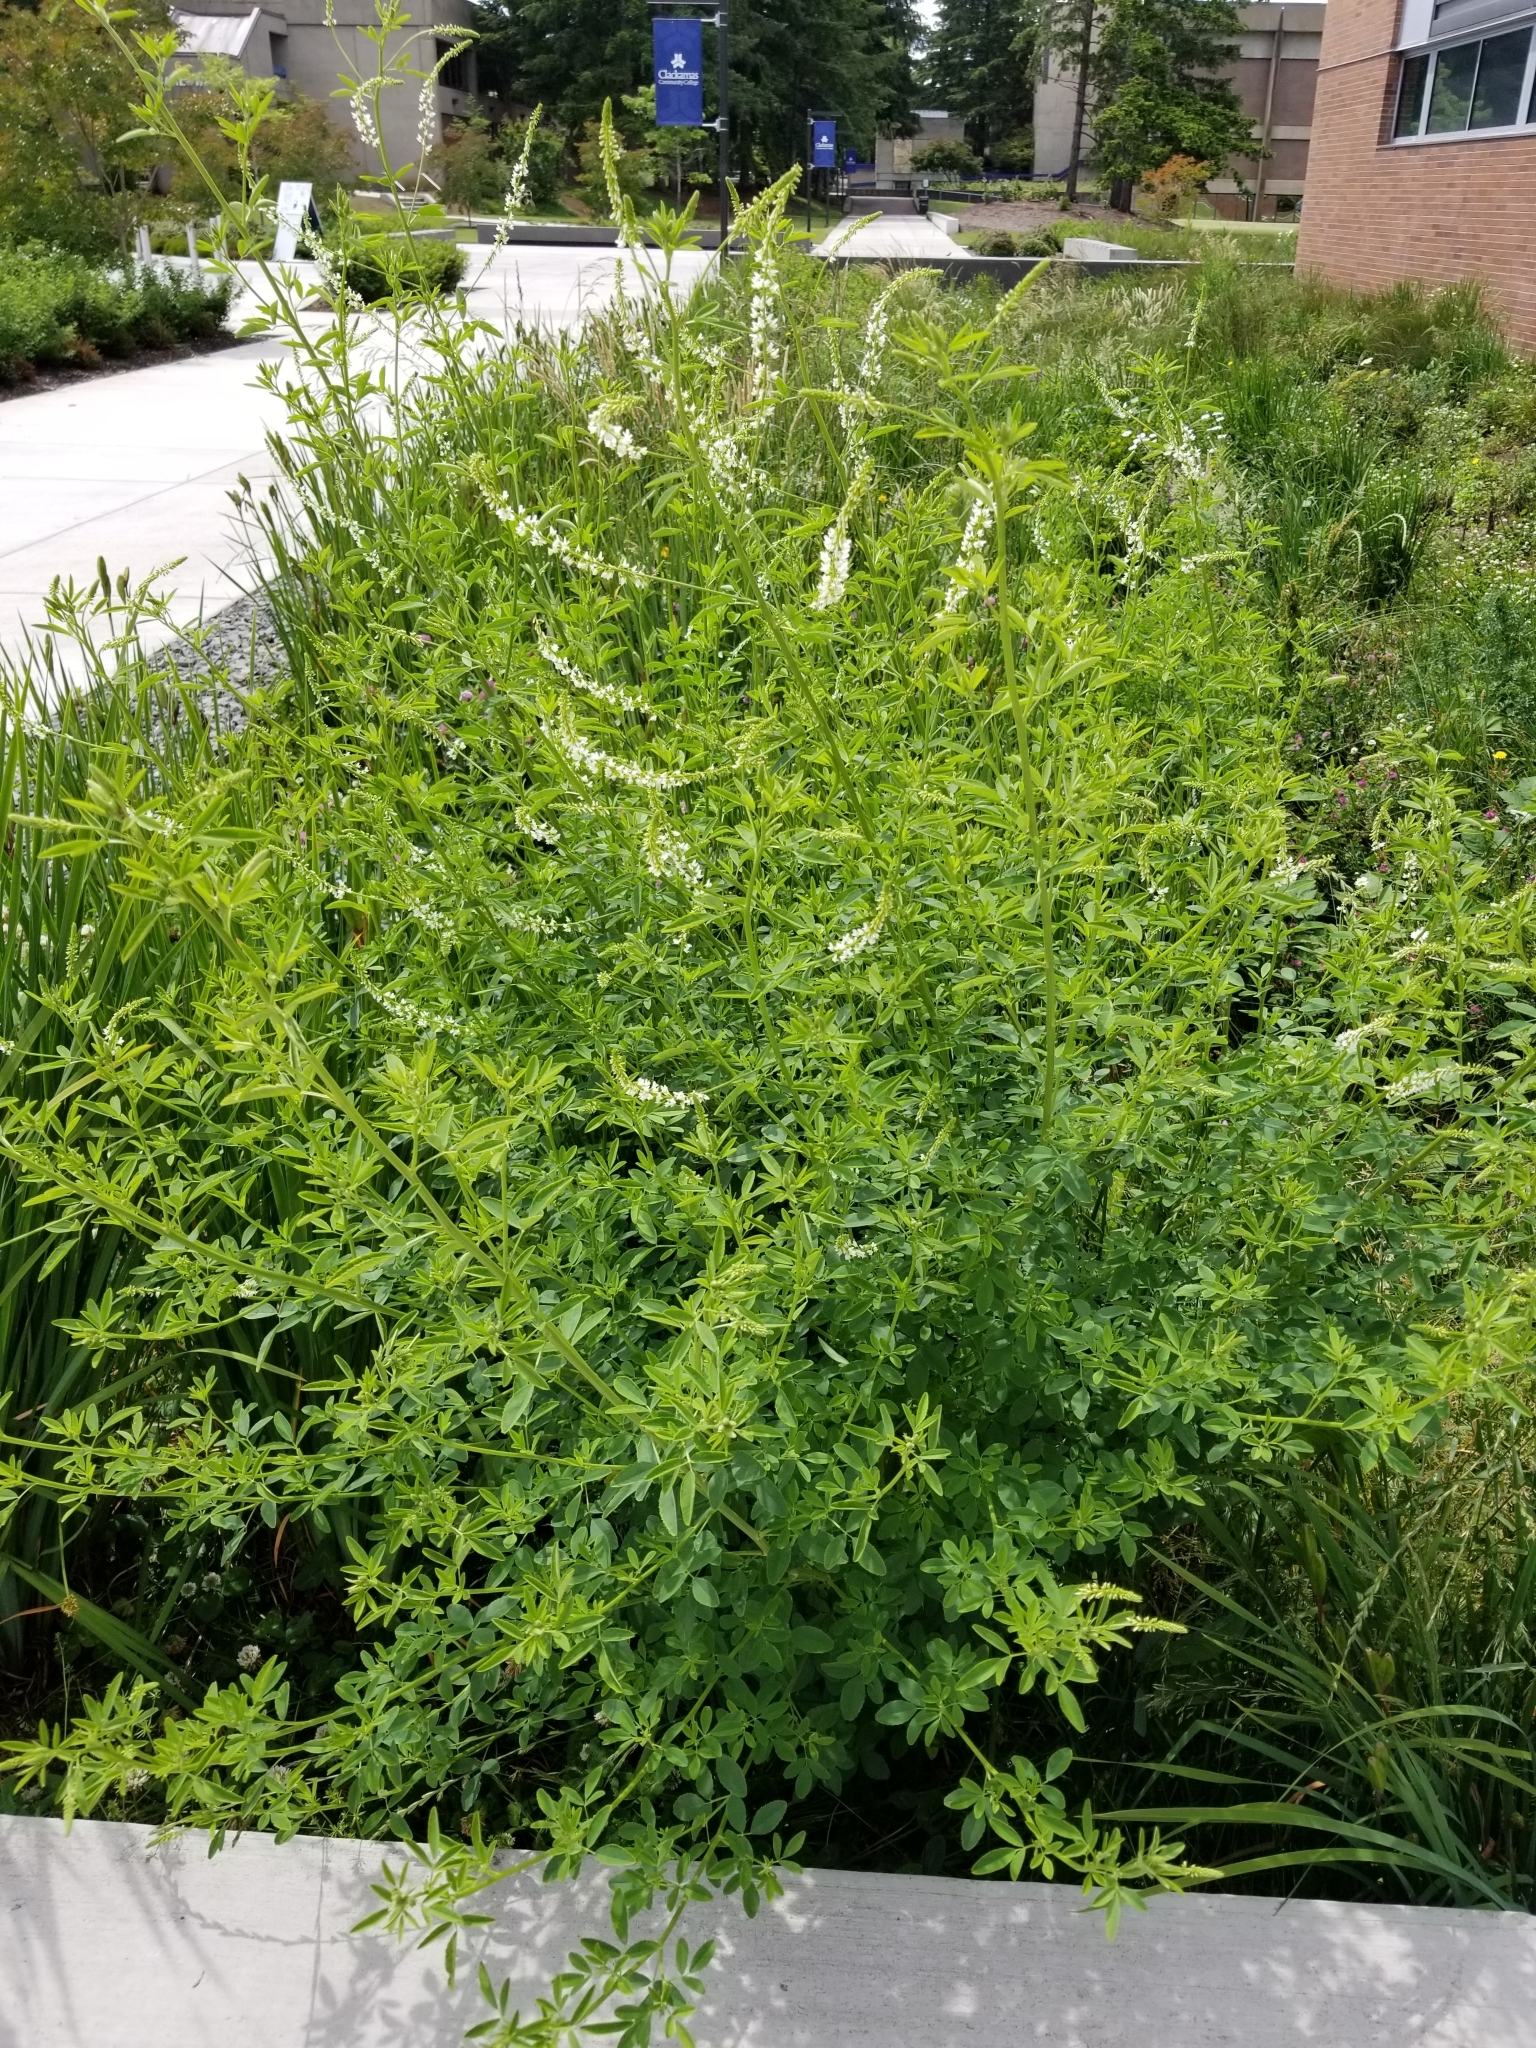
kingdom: Plantae
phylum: Tracheophyta
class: Magnoliopsida
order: Fabales
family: Fabaceae
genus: Melilotus
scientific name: Melilotus albus
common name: White melilot
